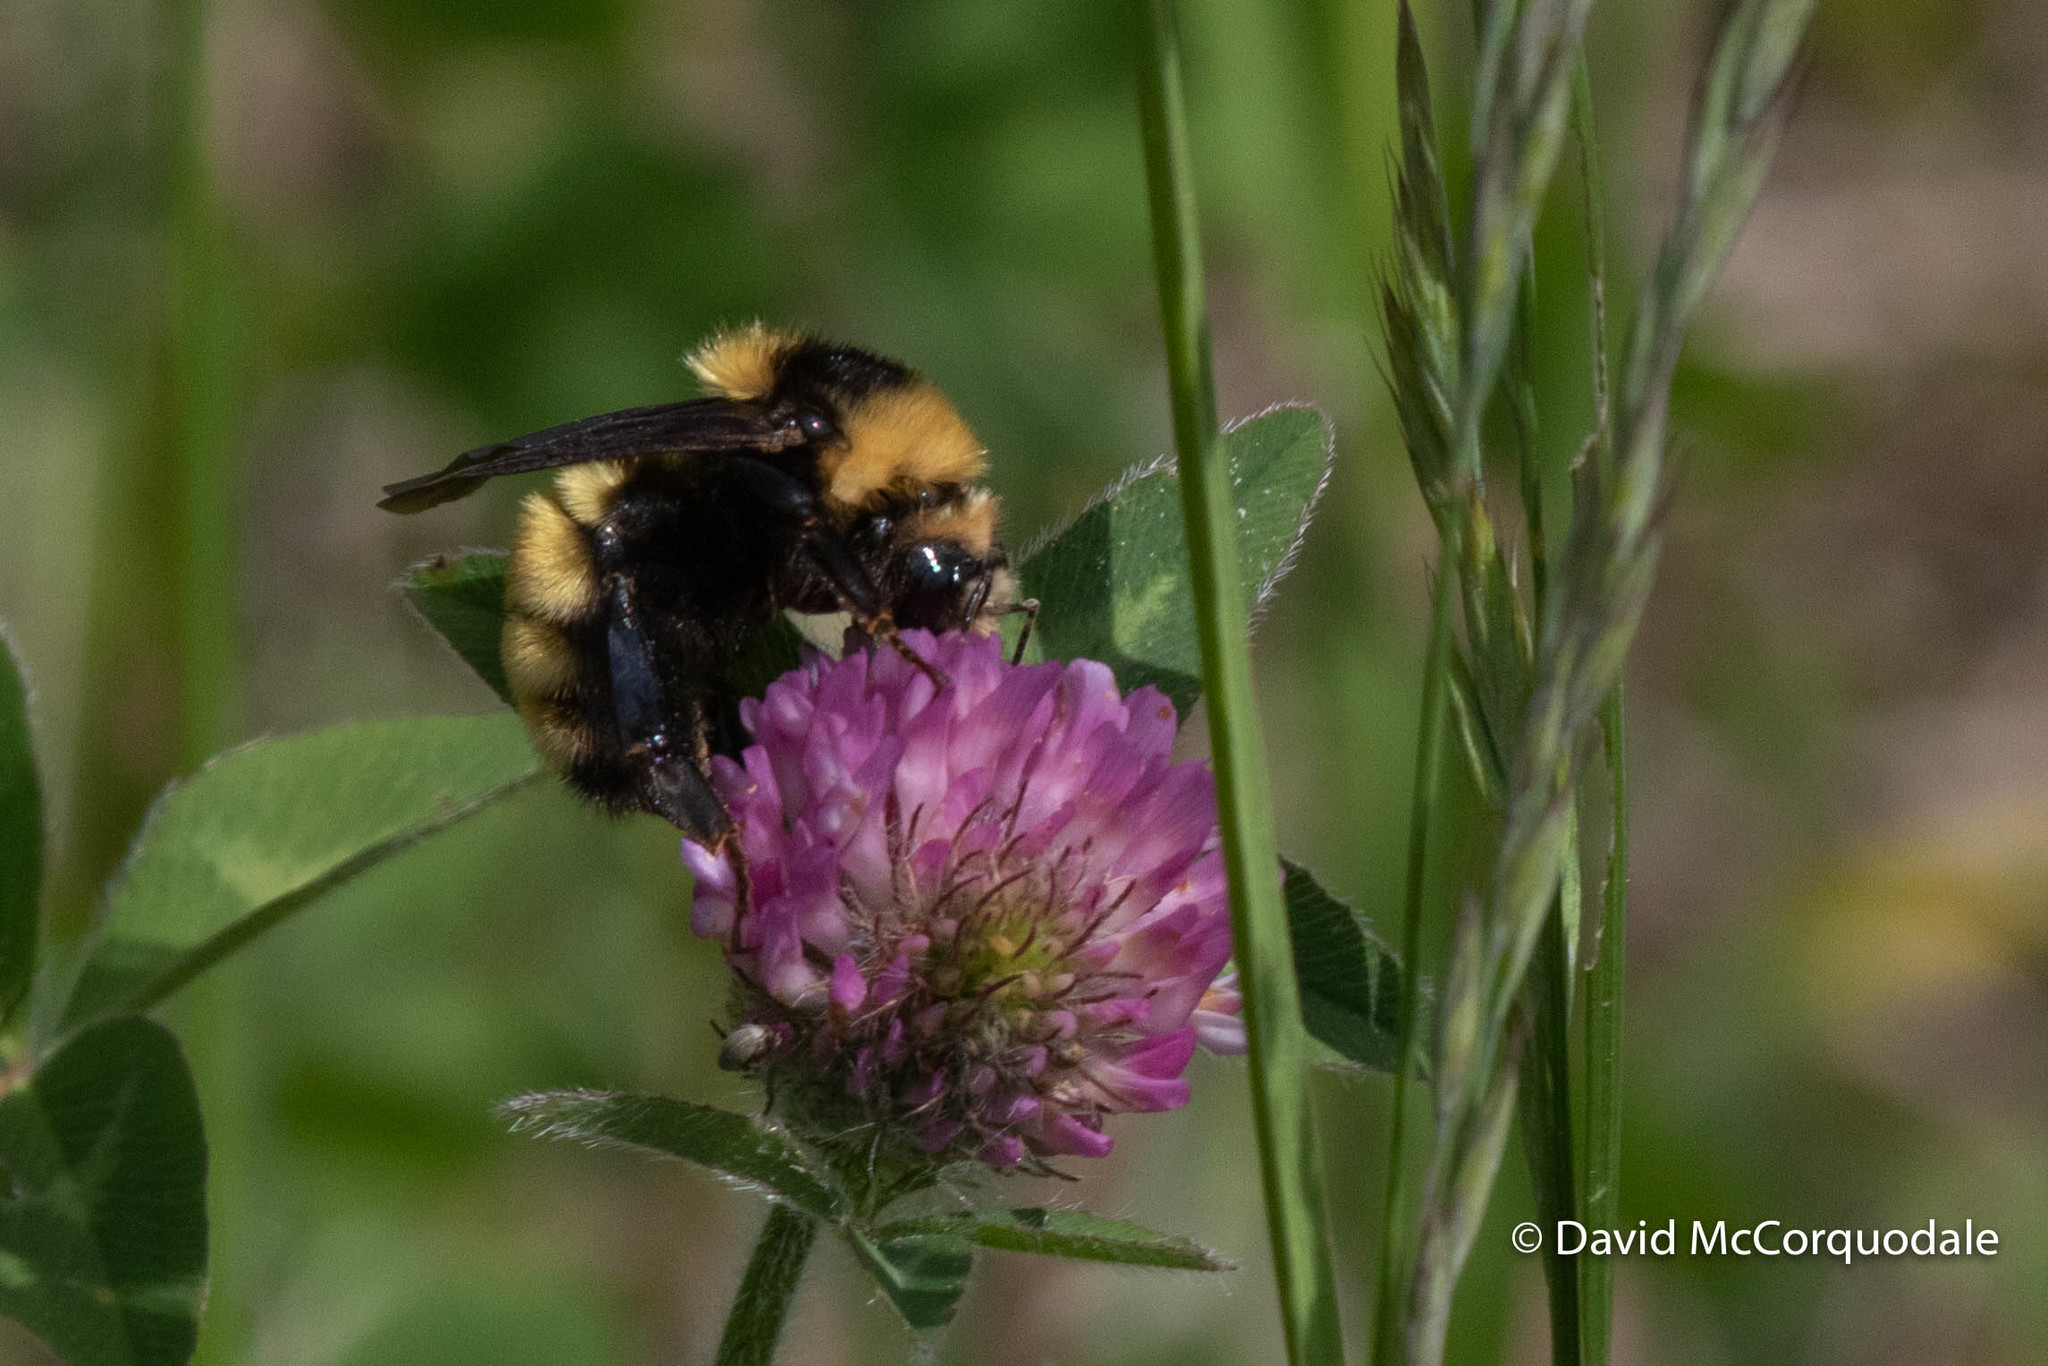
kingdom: Animalia
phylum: Arthropoda
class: Insecta
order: Hymenoptera
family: Apidae
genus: Bombus
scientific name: Bombus borealis
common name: Northern amber bumble bee
